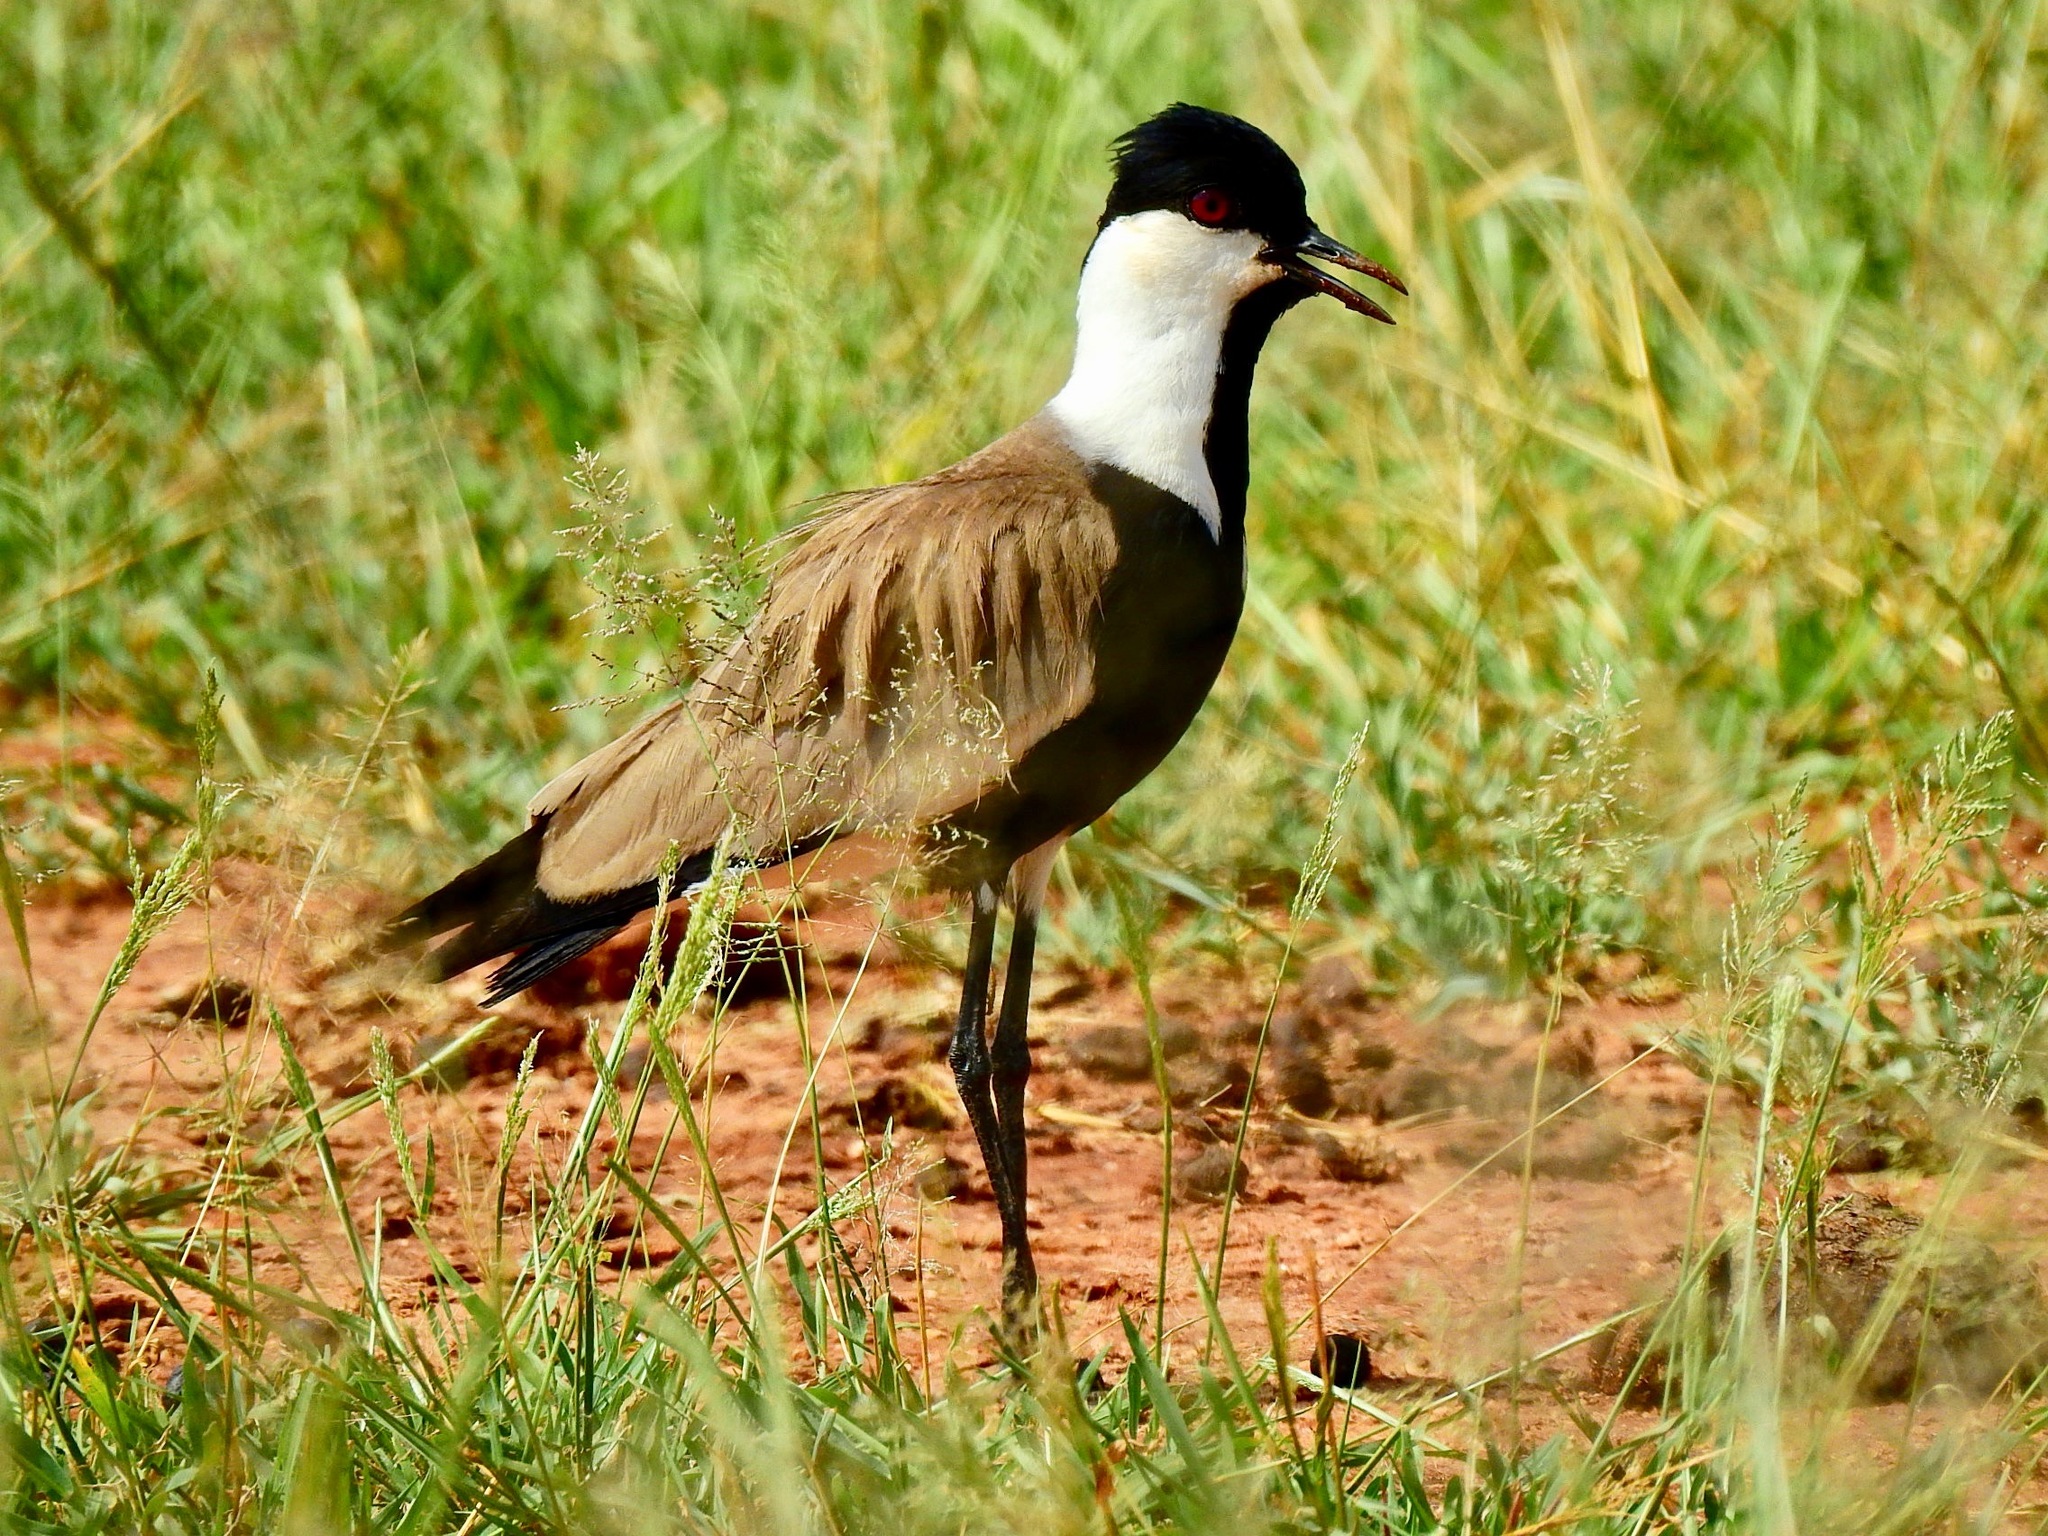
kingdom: Animalia
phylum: Chordata
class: Aves
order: Charadriiformes
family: Charadriidae
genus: Vanellus
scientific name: Vanellus spinosus
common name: Spur-winged lapwing
